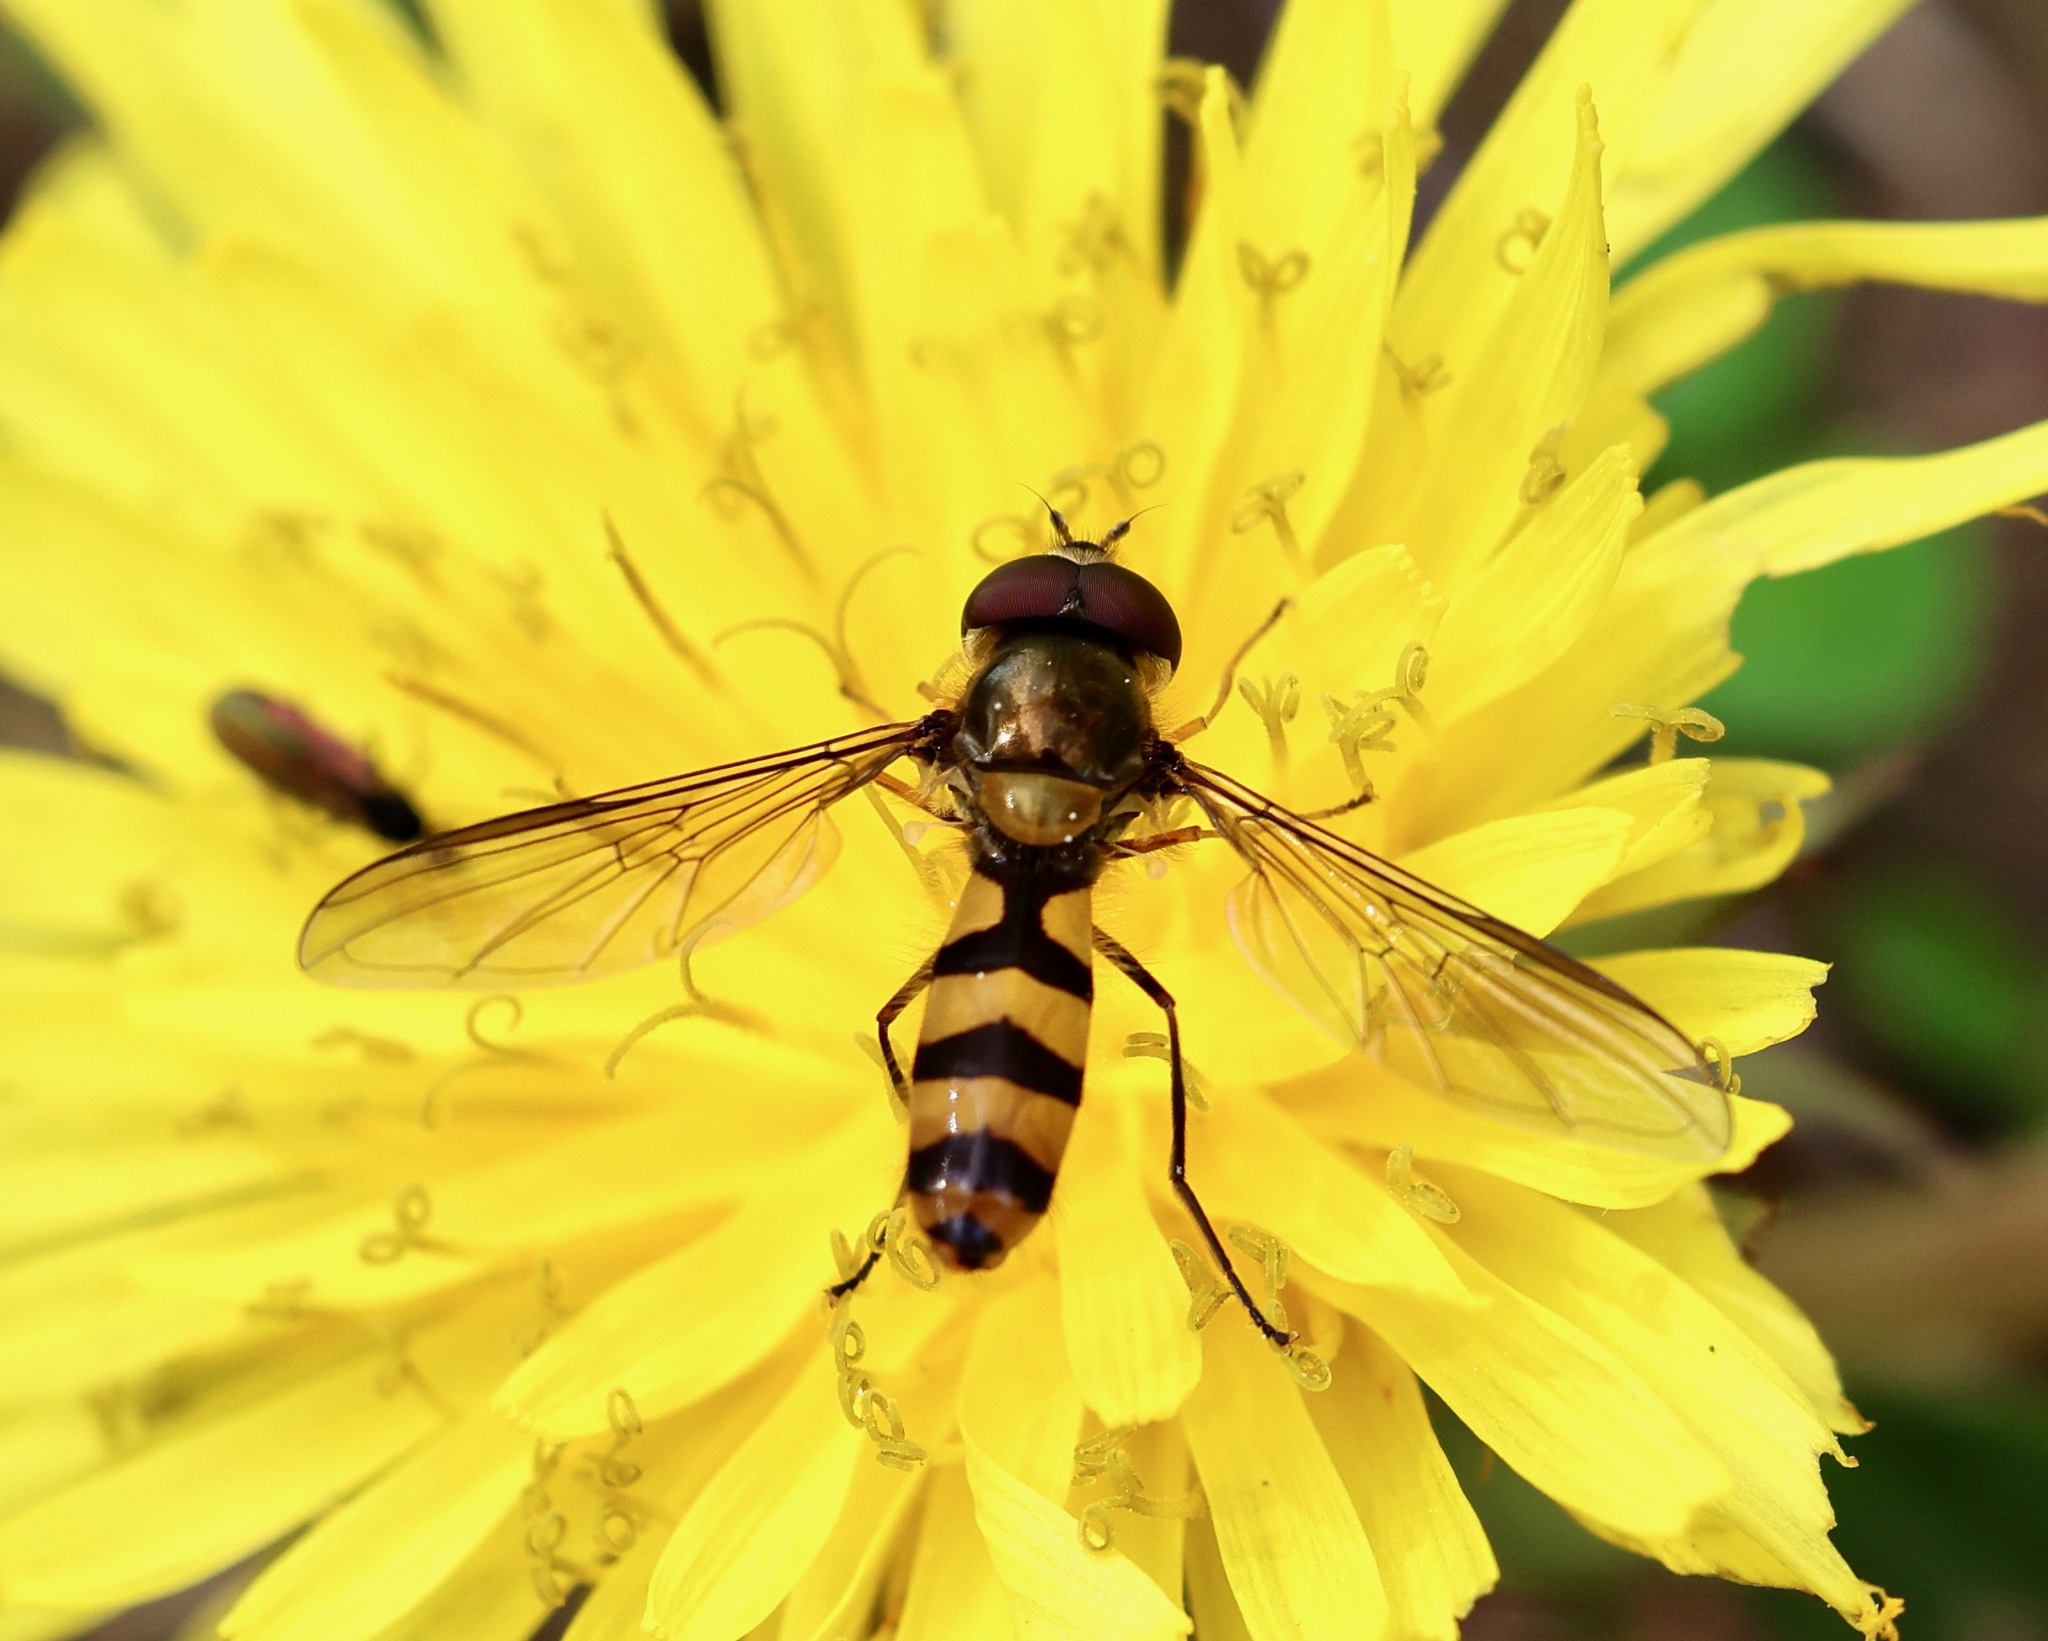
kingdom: Animalia
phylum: Arthropoda
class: Insecta
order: Diptera
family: Syrphidae
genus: Meliscaeva
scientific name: Meliscaeva cinctella
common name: American thintail fly
